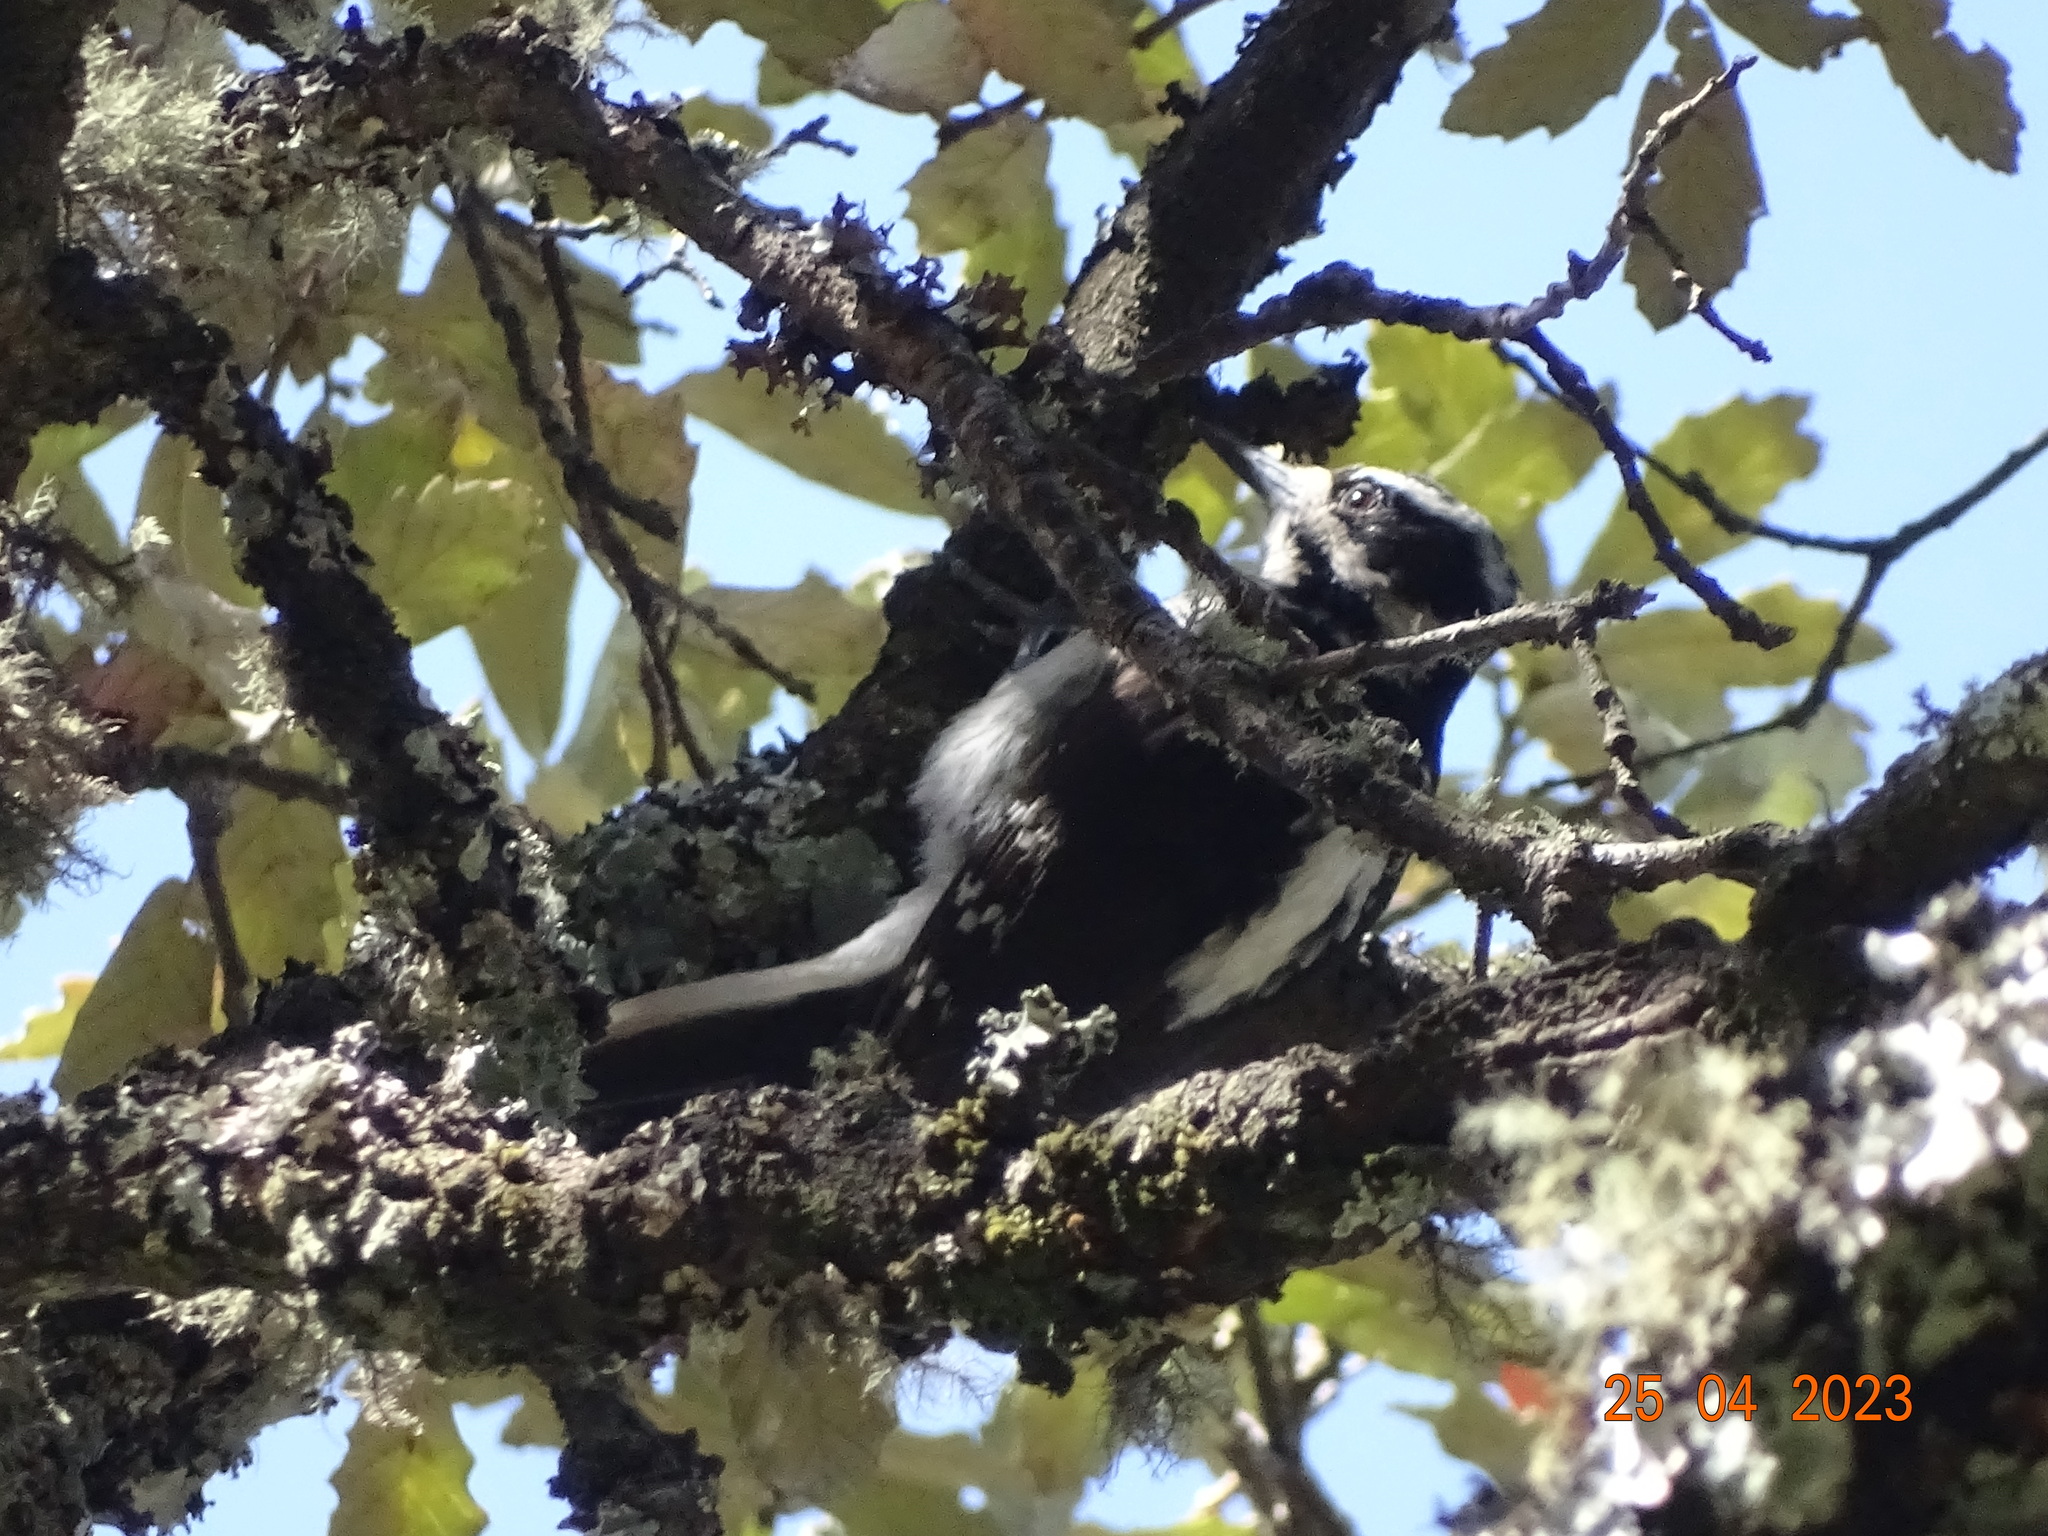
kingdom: Animalia
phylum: Chordata
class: Aves
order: Piciformes
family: Picidae
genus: Leuconotopicus
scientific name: Leuconotopicus villosus
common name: Hairy woodpecker
